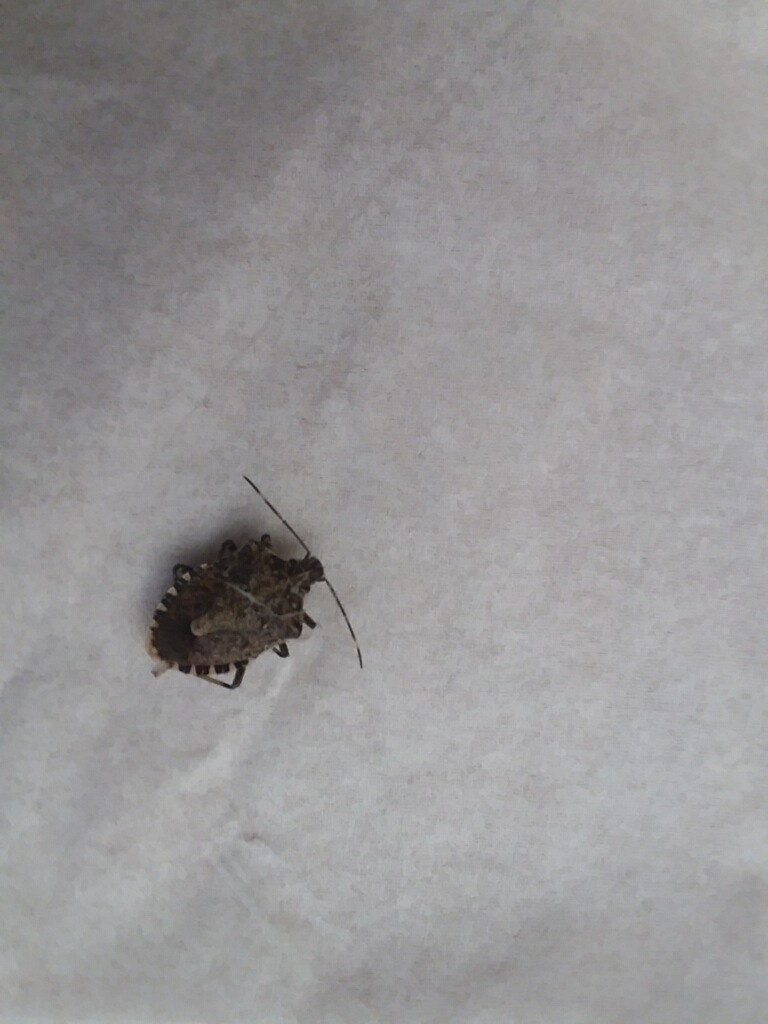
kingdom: Animalia
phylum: Arthropoda
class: Insecta
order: Hemiptera
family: Pentatomidae
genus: Halyomorpha
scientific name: Halyomorpha halys
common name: Brown marmorated stink bug
